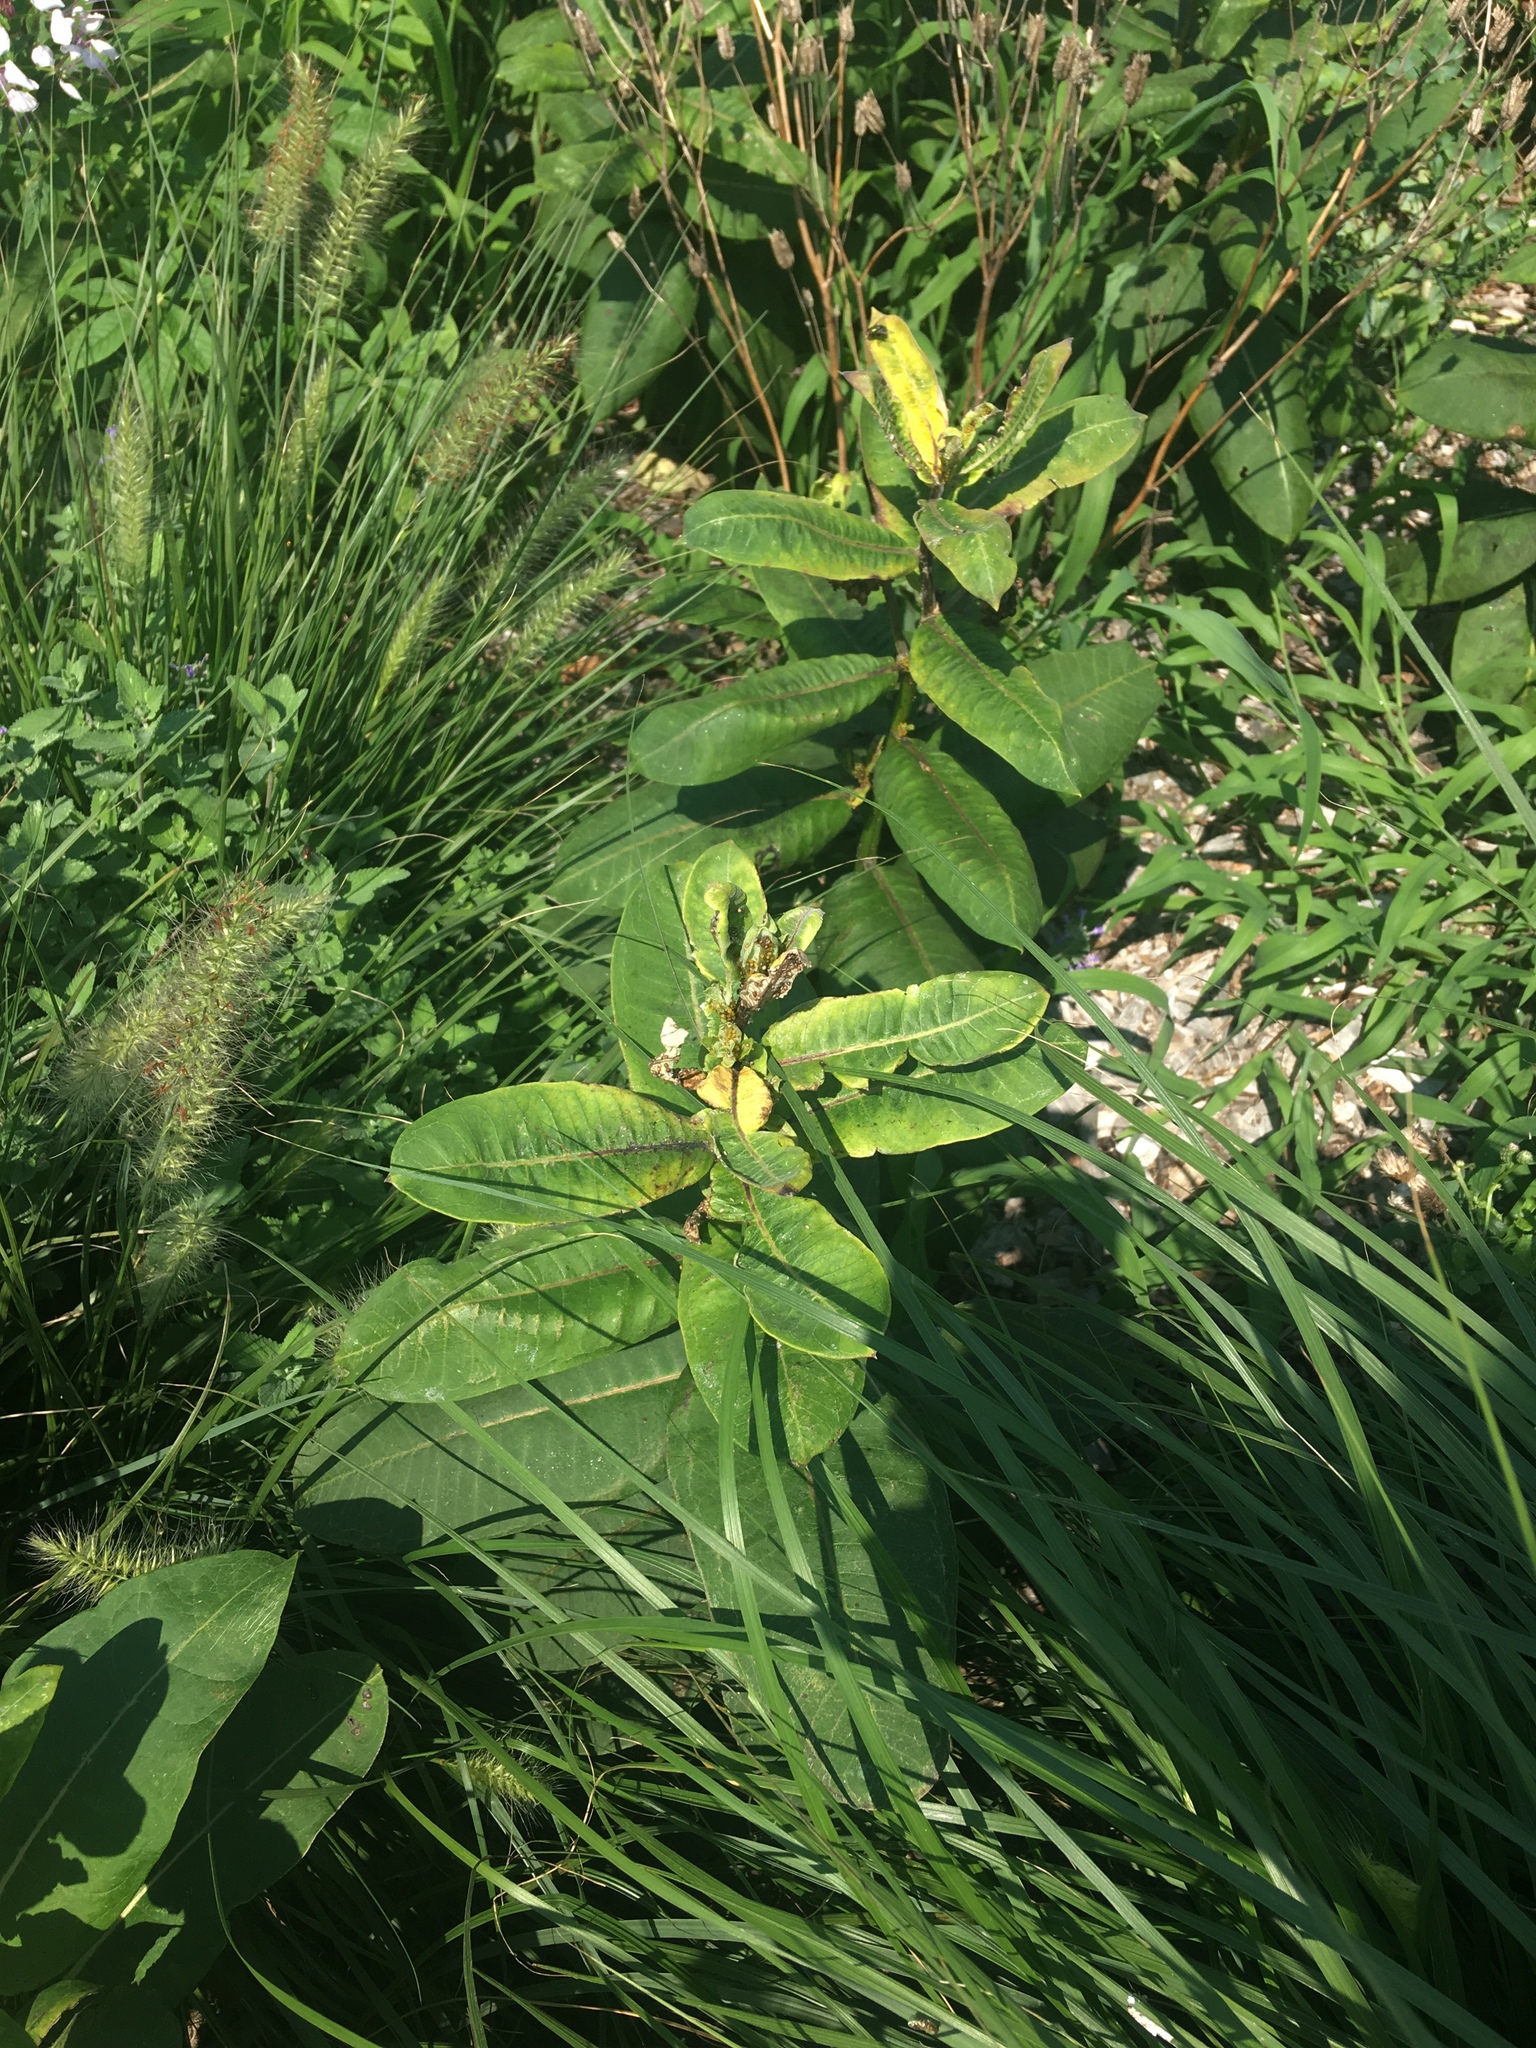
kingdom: Plantae
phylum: Tracheophyta
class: Magnoliopsida
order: Gentianales
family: Apocynaceae
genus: Asclepias
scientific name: Asclepias syriaca
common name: Common milkweed
